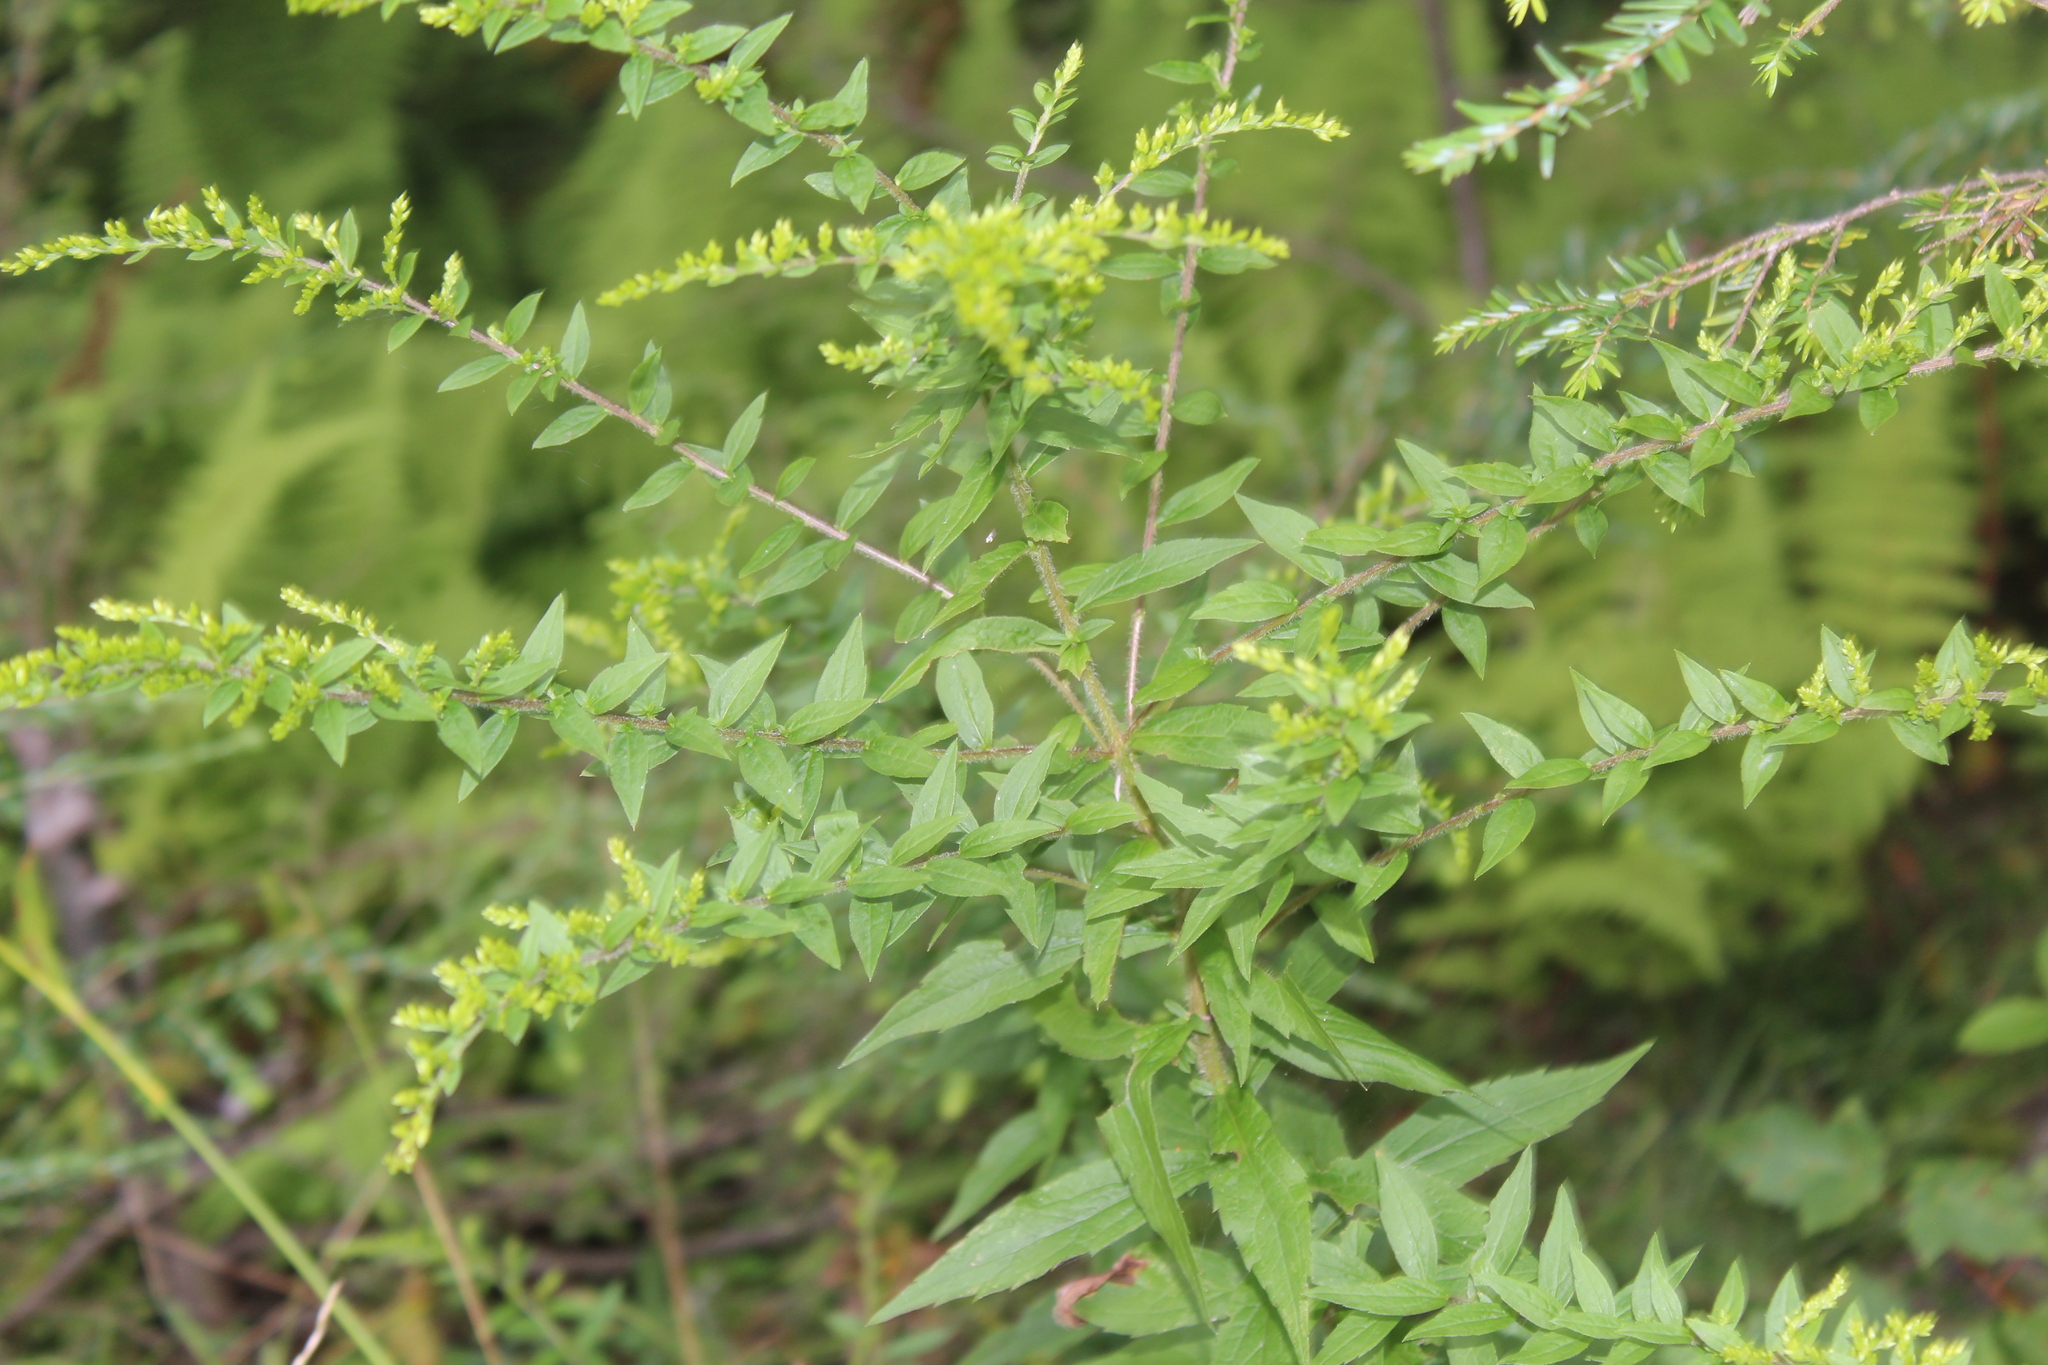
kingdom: Plantae
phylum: Tracheophyta
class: Magnoliopsida
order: Asterales
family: Asteraceae
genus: Solidago
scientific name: Solidago rugosa
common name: Rough-stemmed goldenrod
